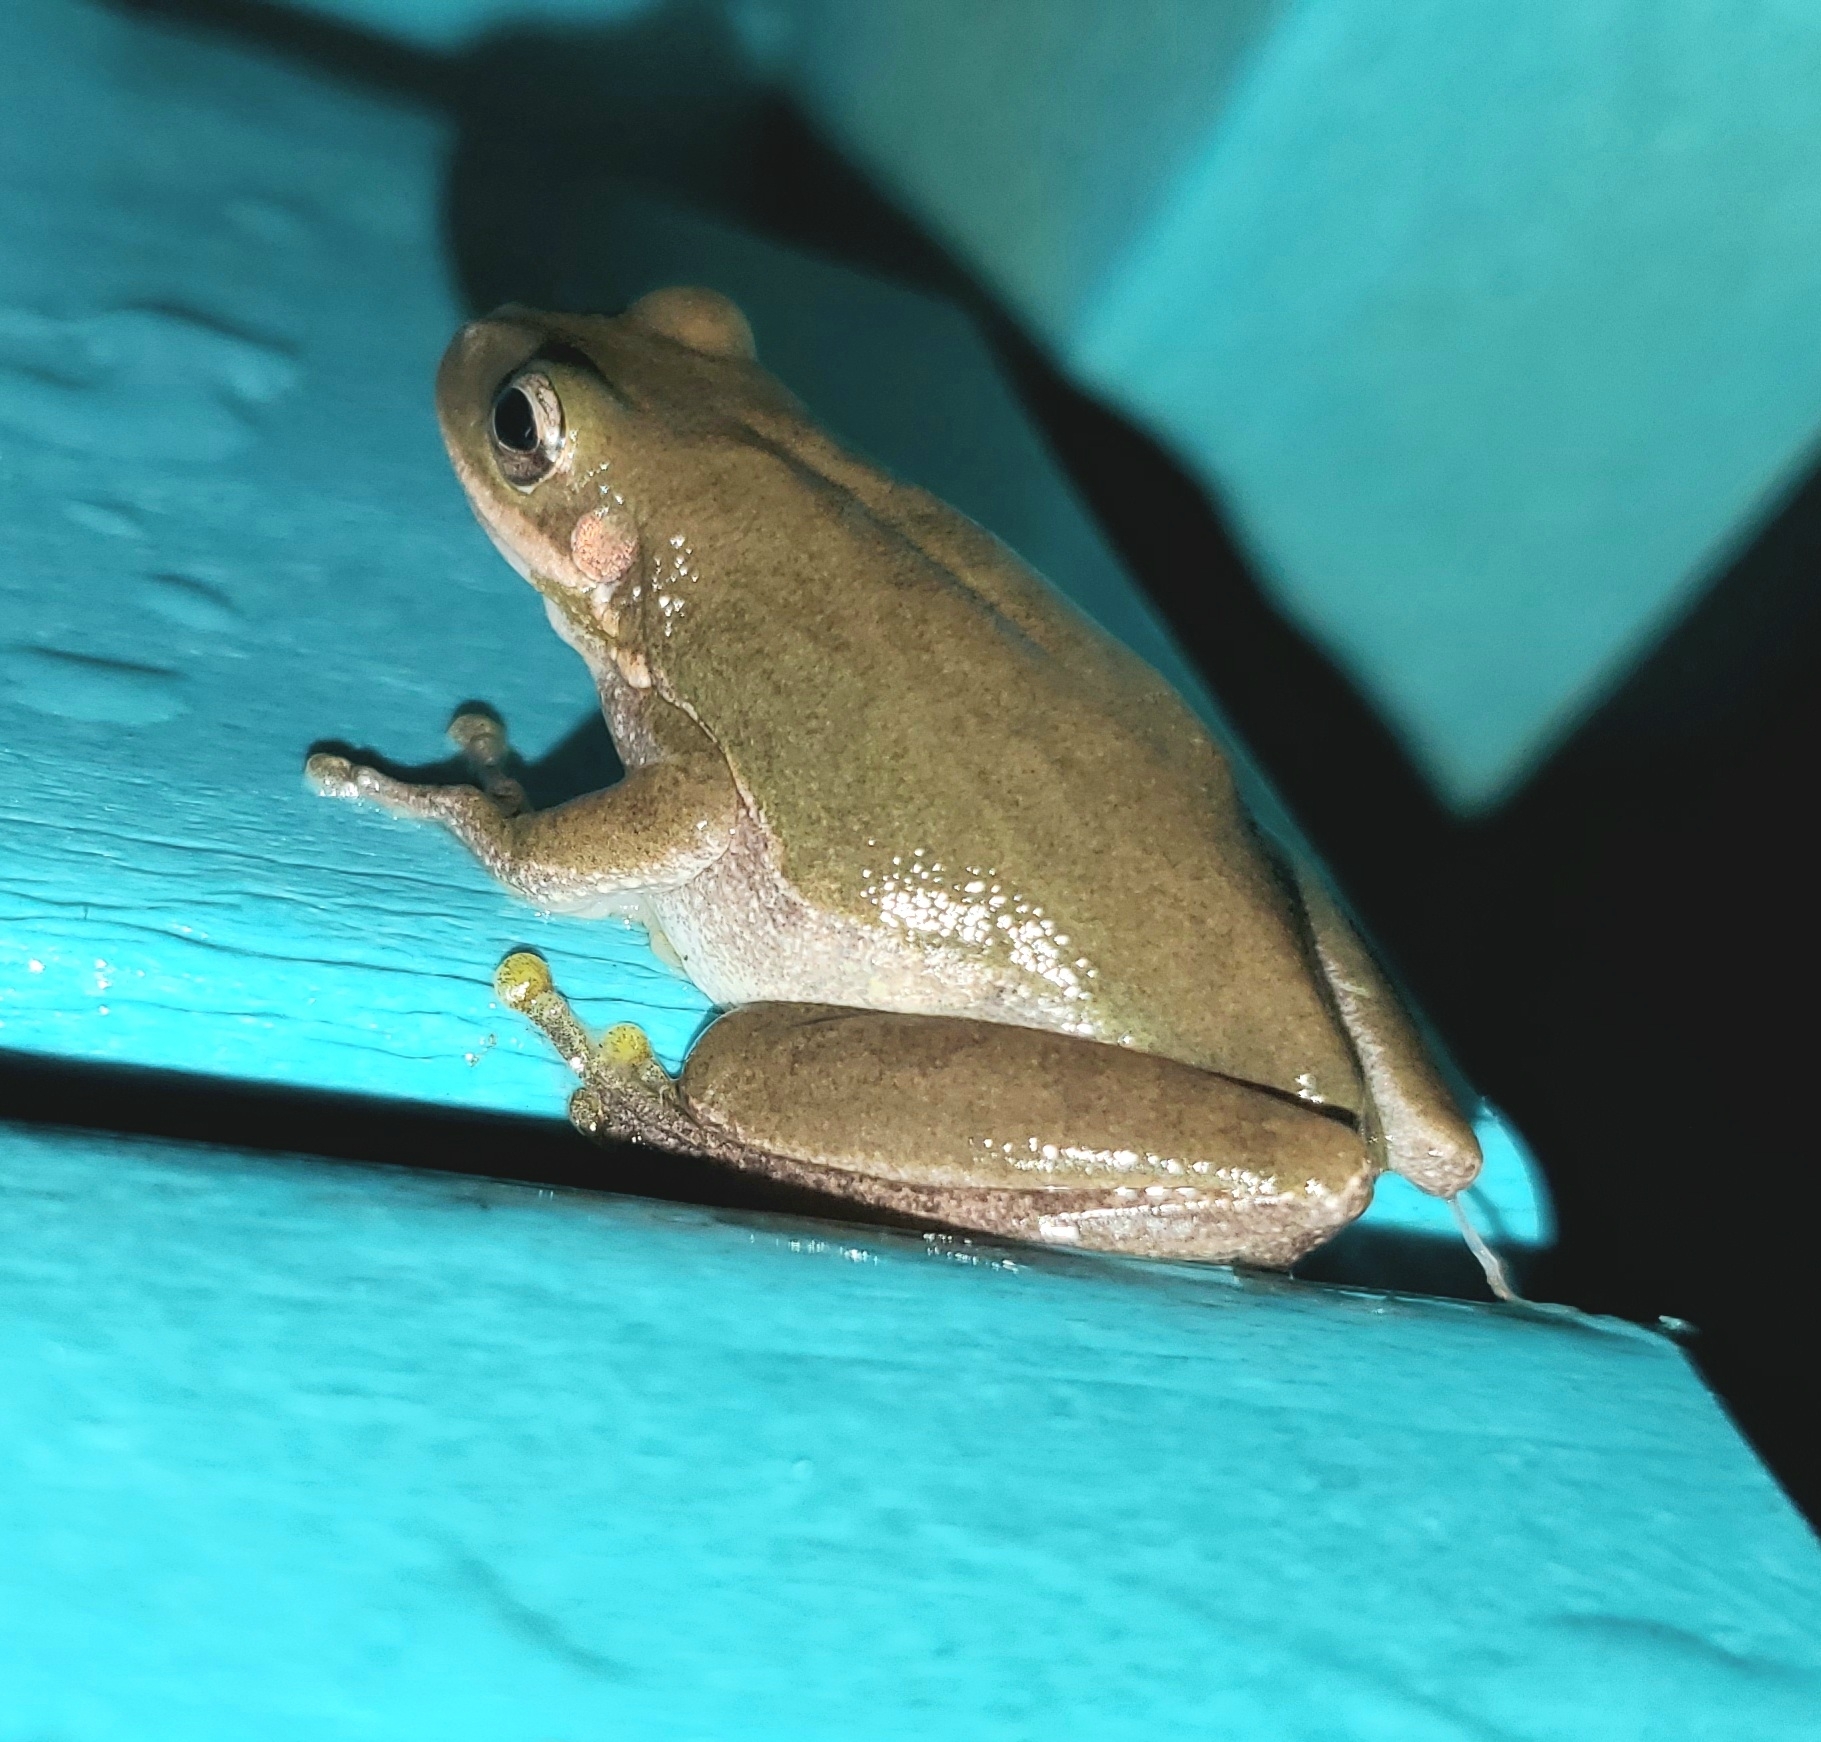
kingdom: Animalia
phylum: Chordata
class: Amphibia
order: Anura
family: Hylidae
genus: Dryophytes
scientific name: Dryophytes squirellus
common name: Squirrel treefrog
